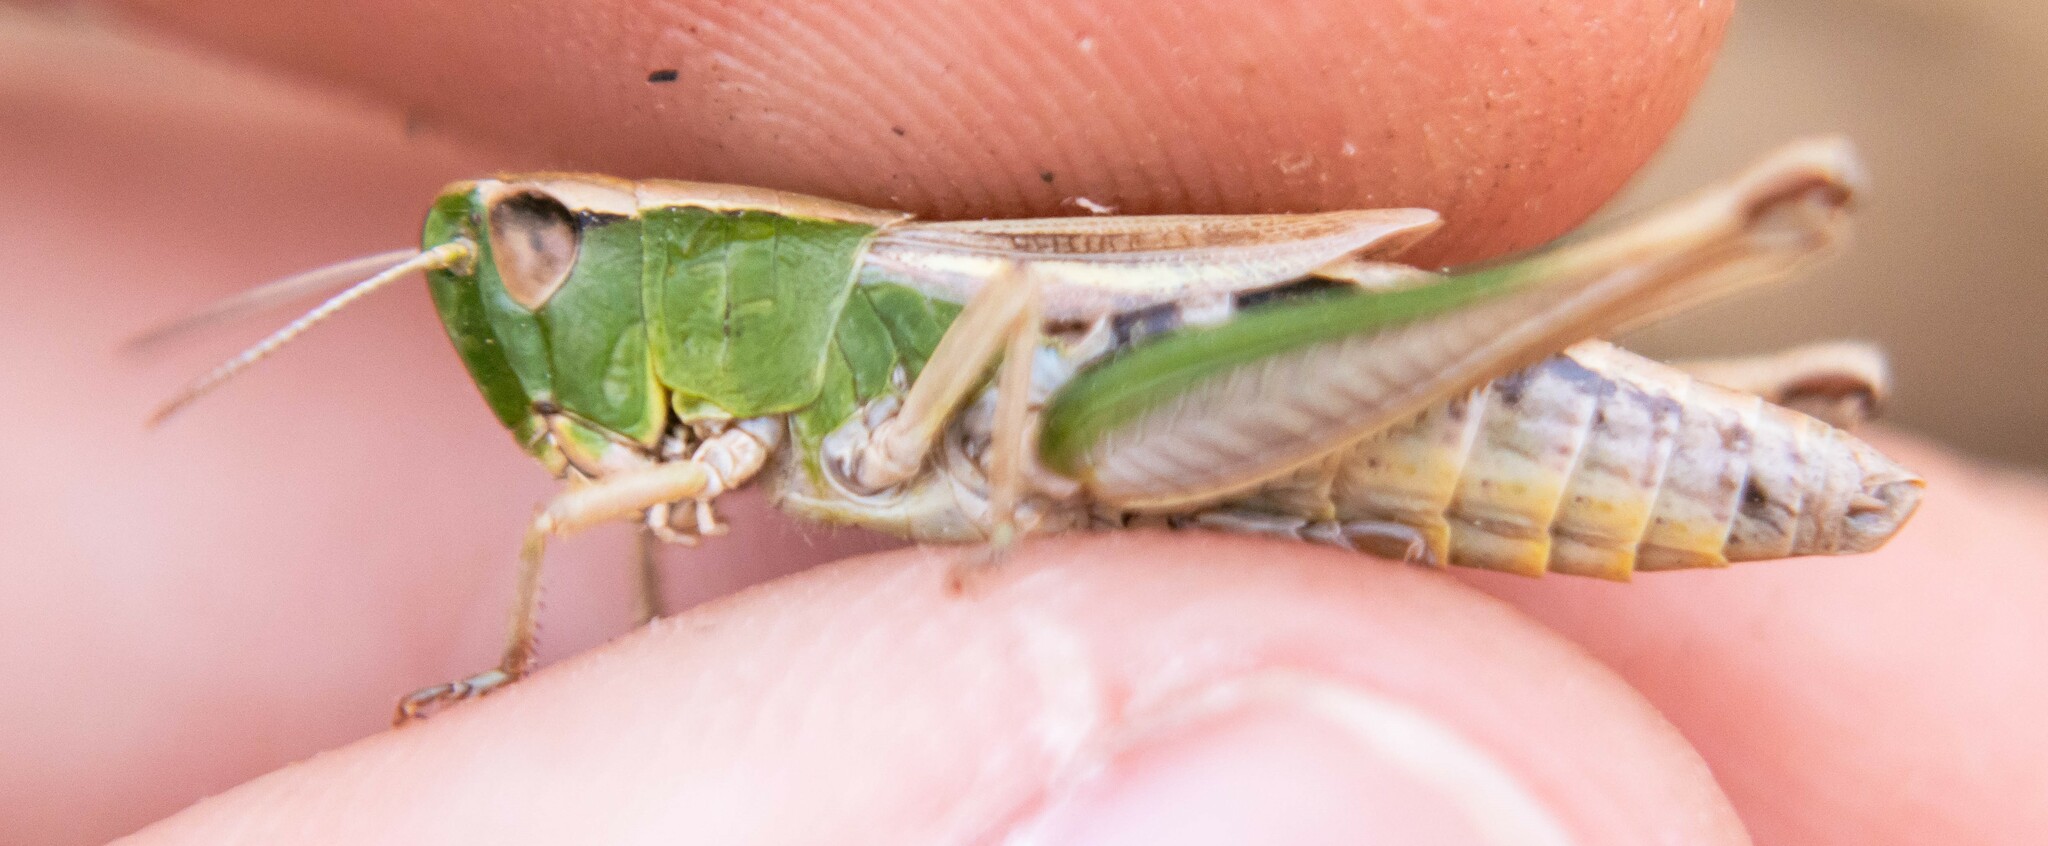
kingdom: Animalia
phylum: Arthropoda
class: Insecta
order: Orthoptera
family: Acrididae
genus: Pseudochorthippus
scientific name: Pseudochorthippus parallelus
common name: Meadow grasshopper
